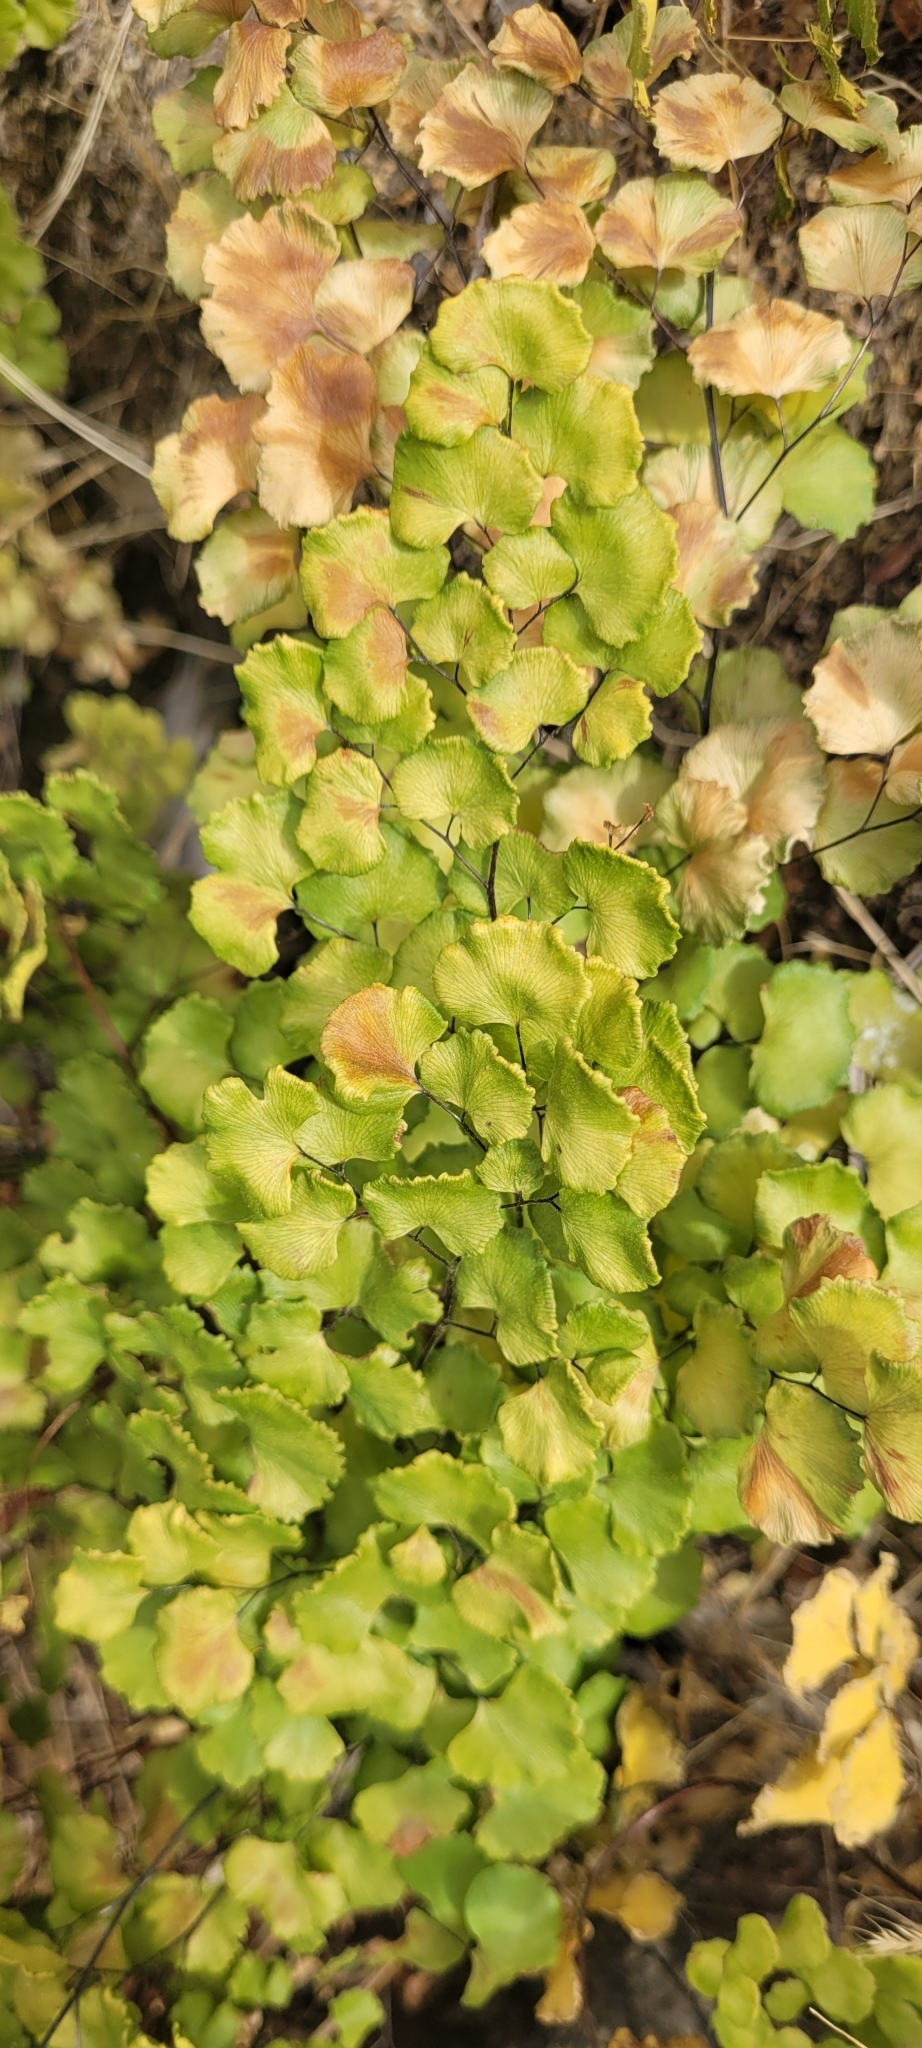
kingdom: Plantae
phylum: Tracheophyta
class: Polypodiopsida
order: Polypodiales
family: Pteridaceae
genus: Adiantum
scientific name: Adiantum chilense
